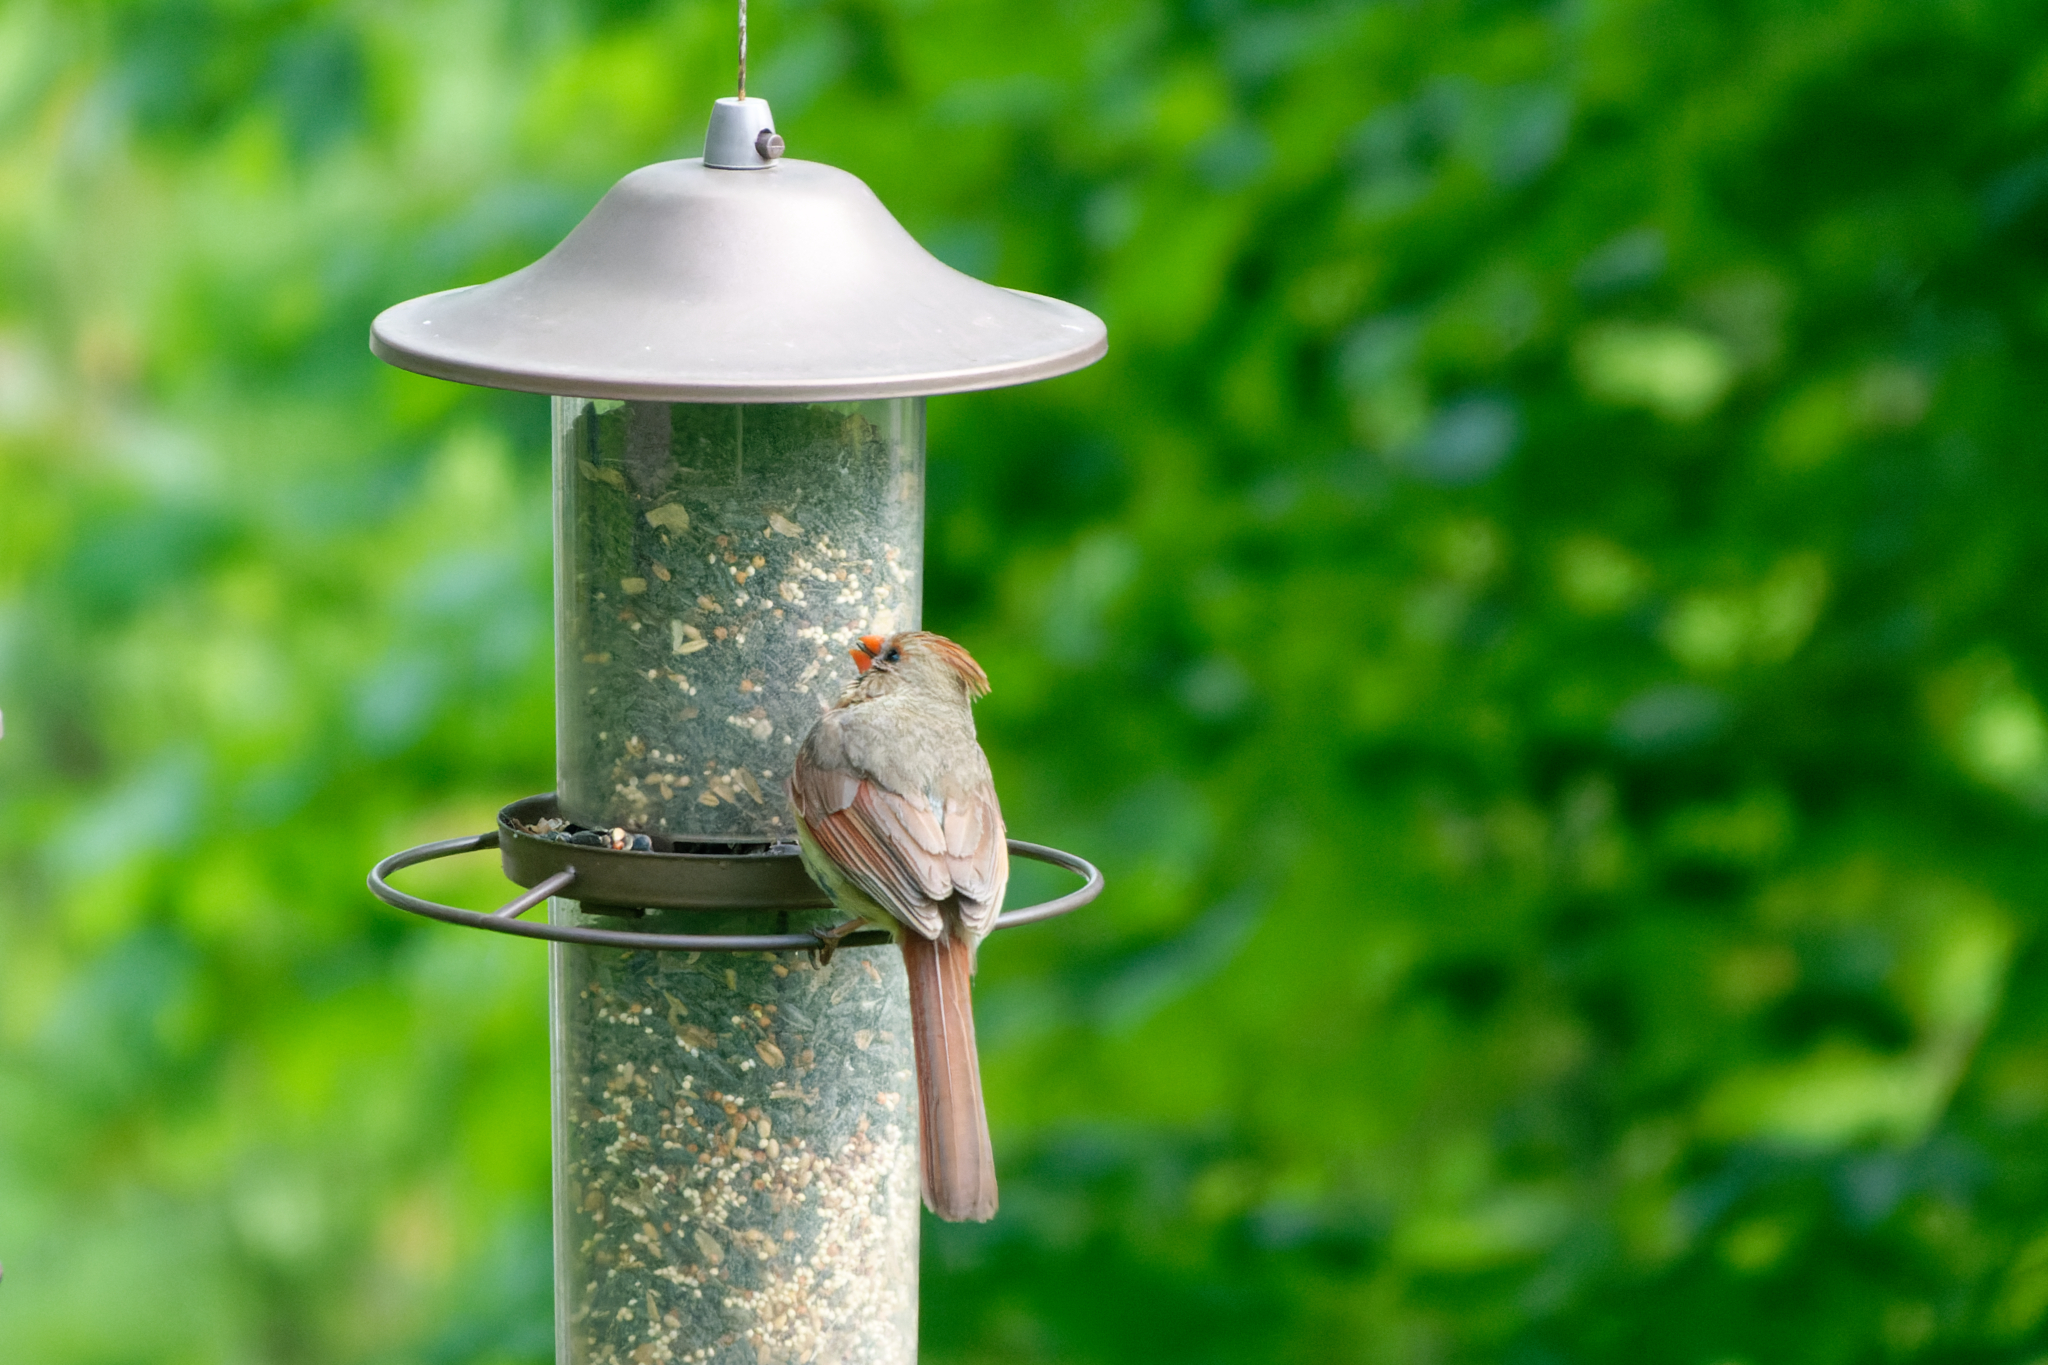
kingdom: Animalia
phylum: Chordata
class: Aves
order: Passeriformes
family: Cardinalidae
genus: Cardinalis
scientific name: Cardinalis cardinalis
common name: Northern cardinal
